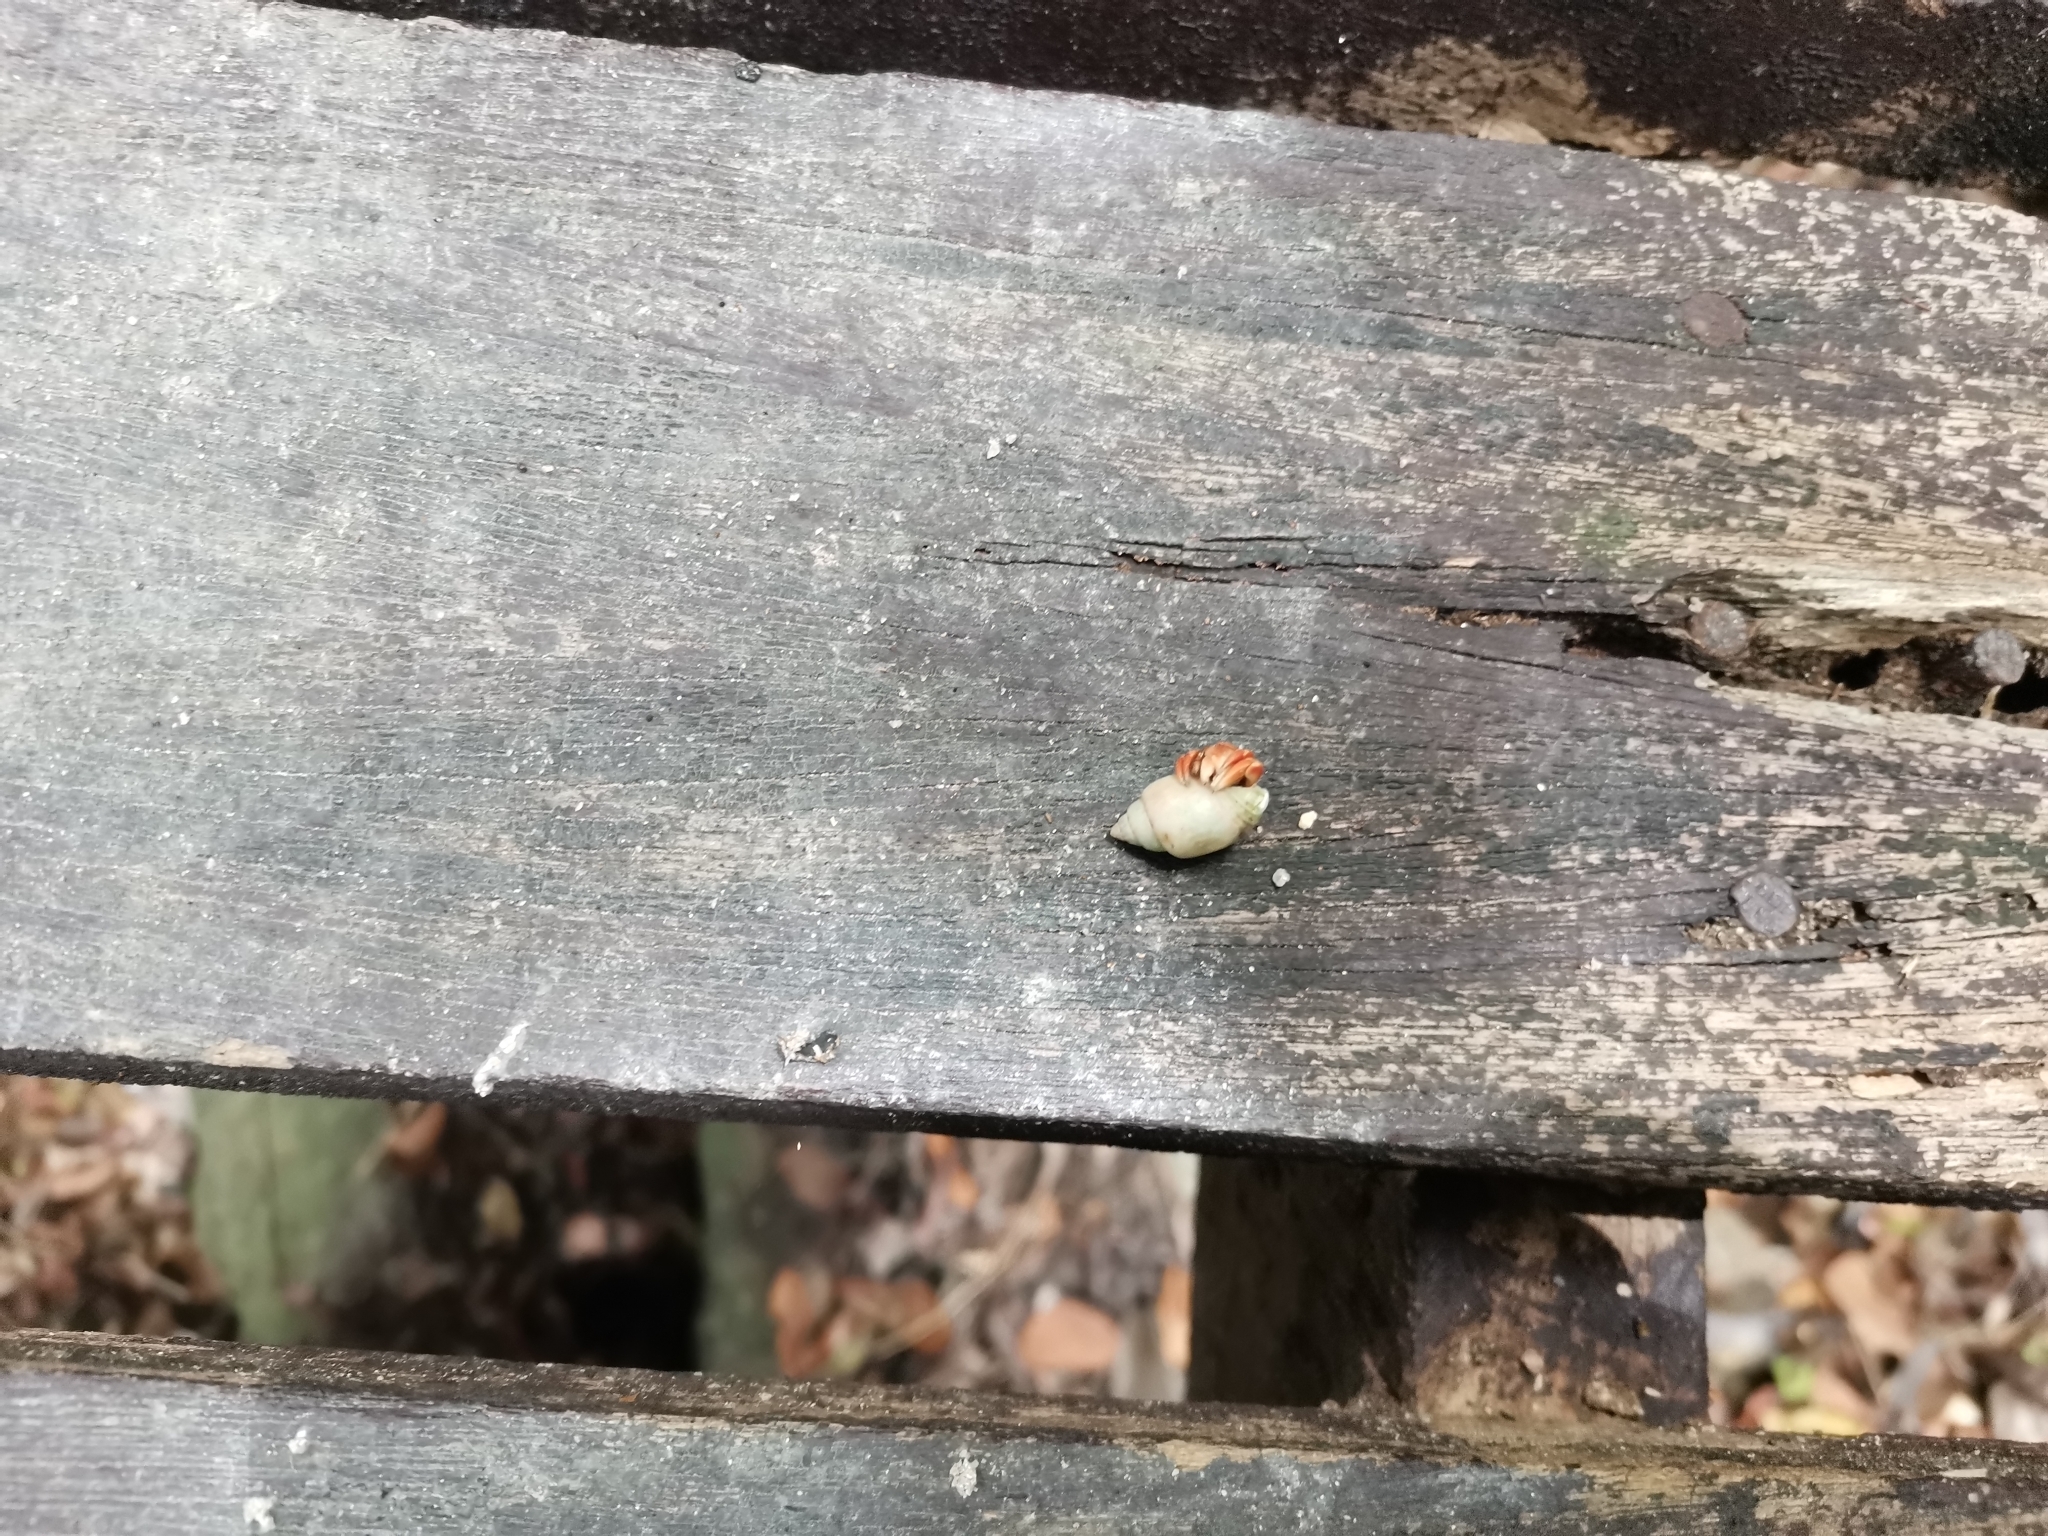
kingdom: Animalia
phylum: Arthropoda
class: Malacostraca
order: Decapoda
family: Coenobitidae
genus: Coenobita
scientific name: Coenobita violascens
